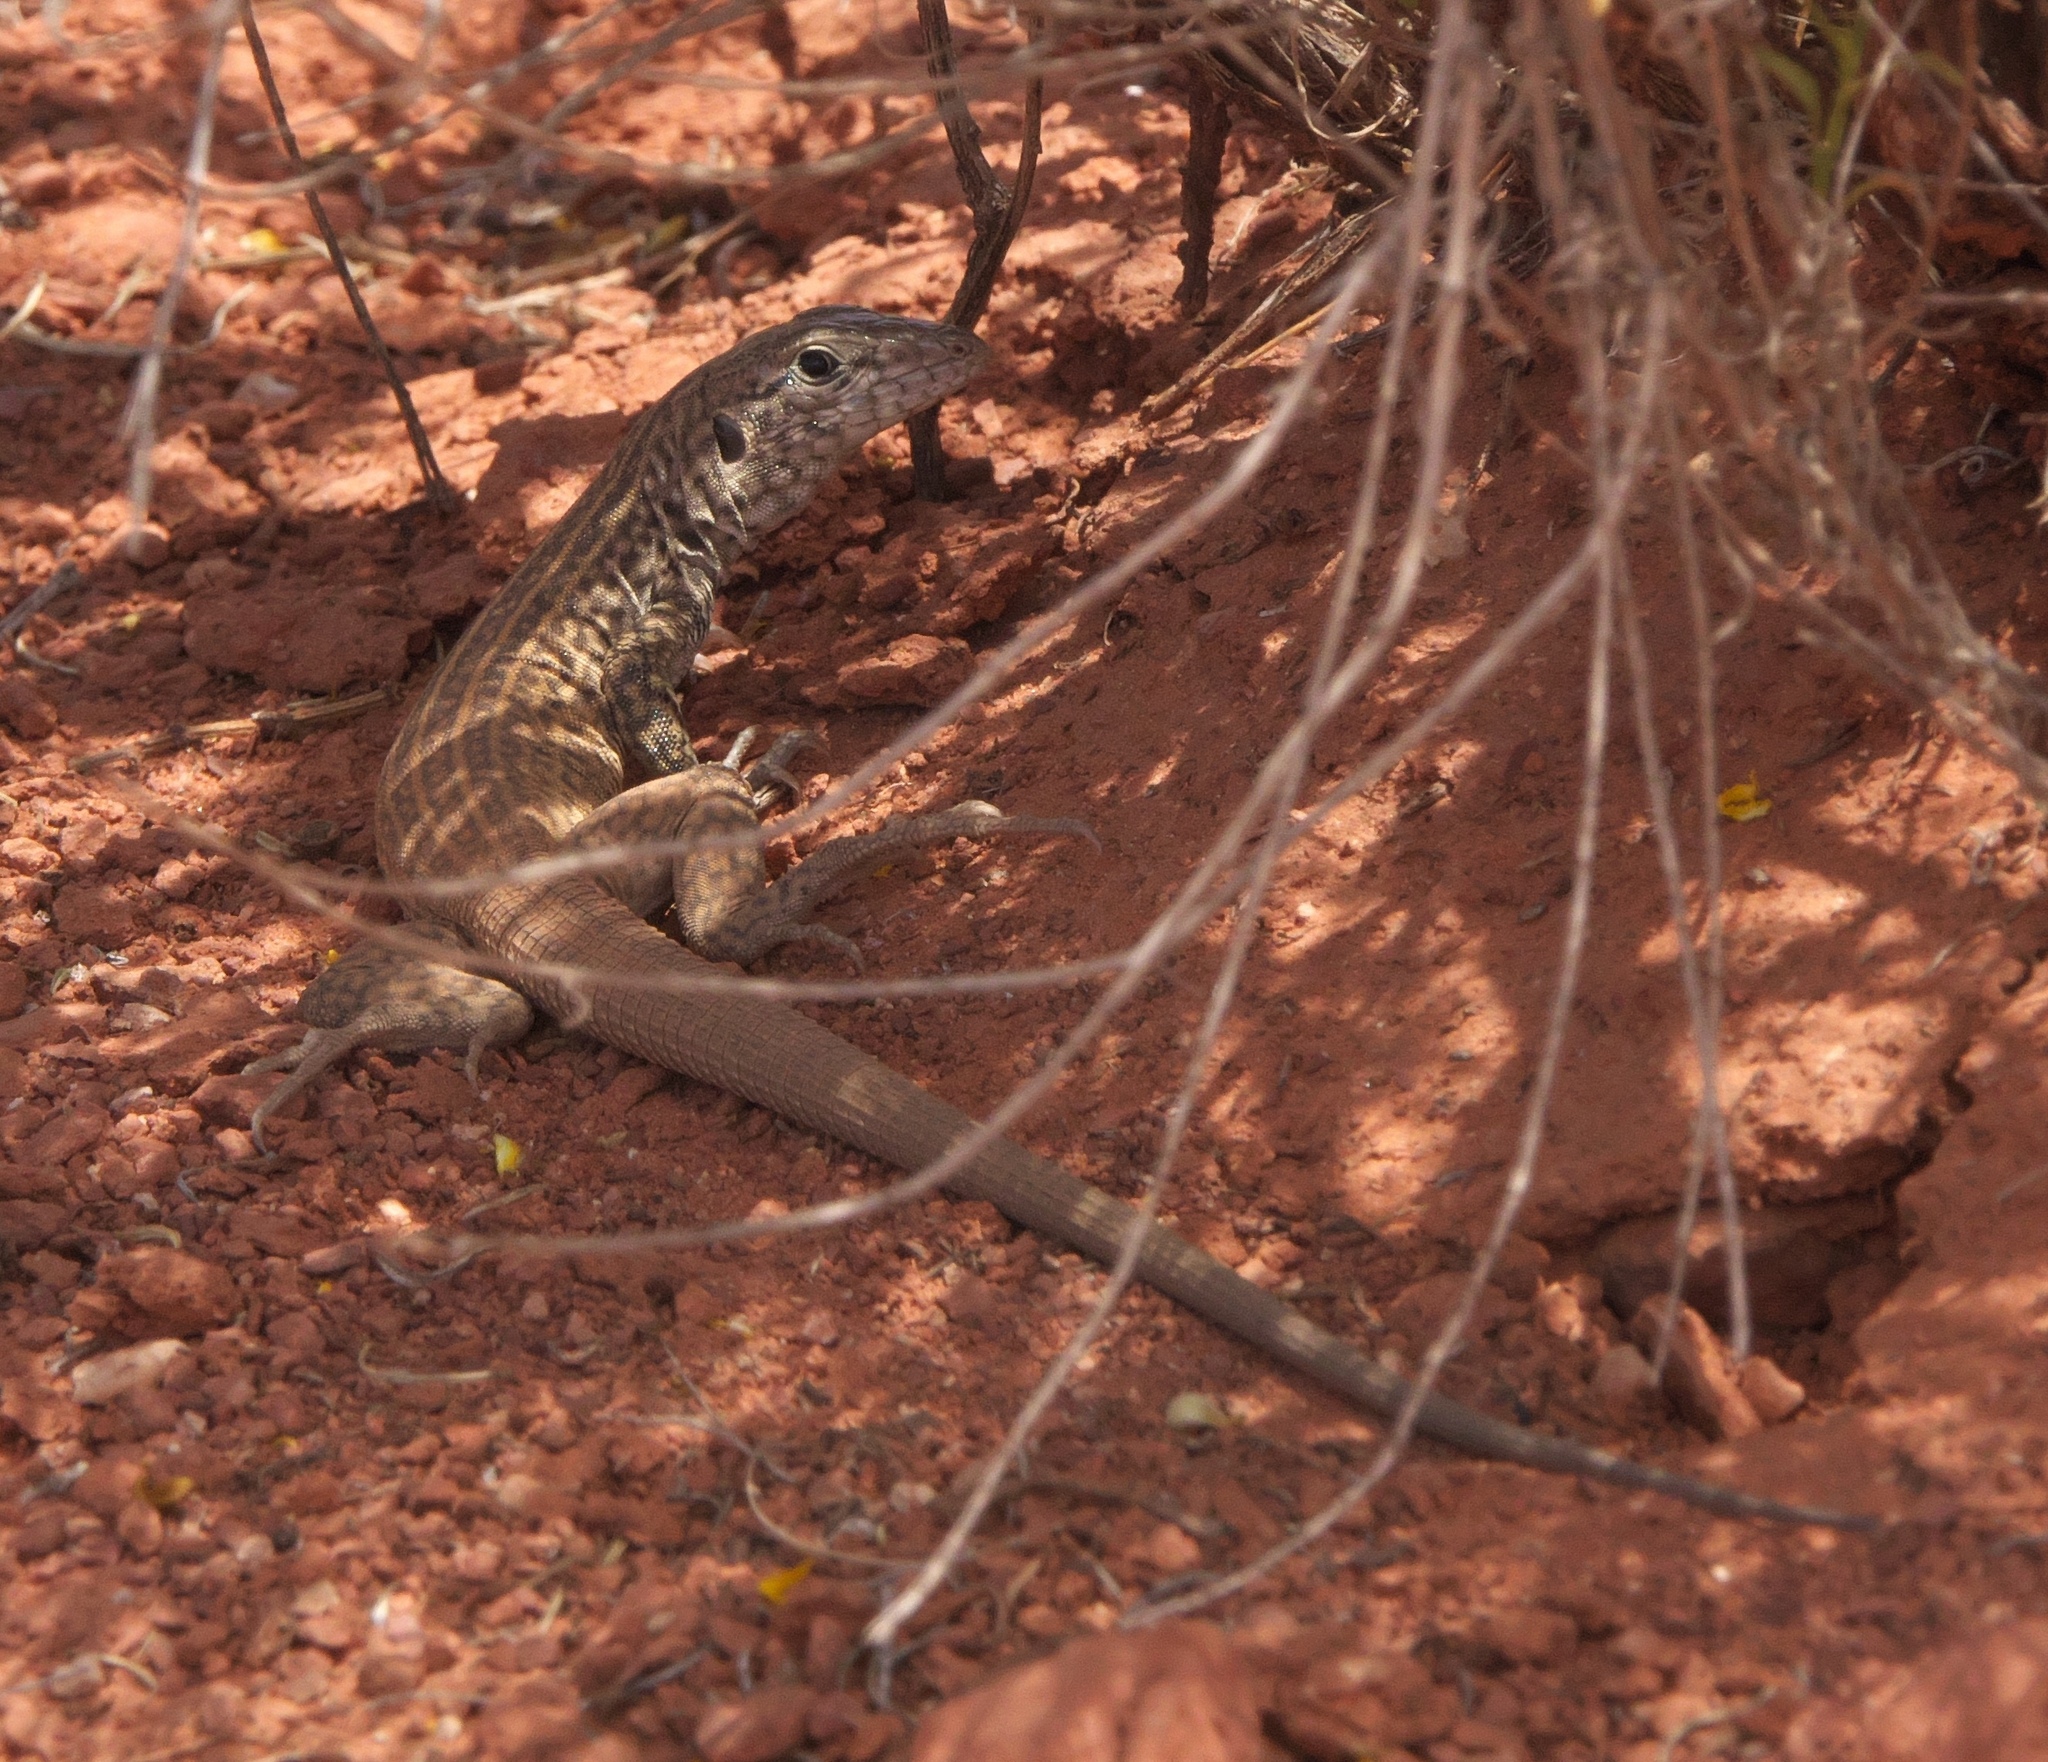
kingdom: Animalia
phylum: Chordata
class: Squamata
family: Teiidae
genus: Aspidoscelis
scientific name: Aspidoscelis tigris
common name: Tiger whiptail
